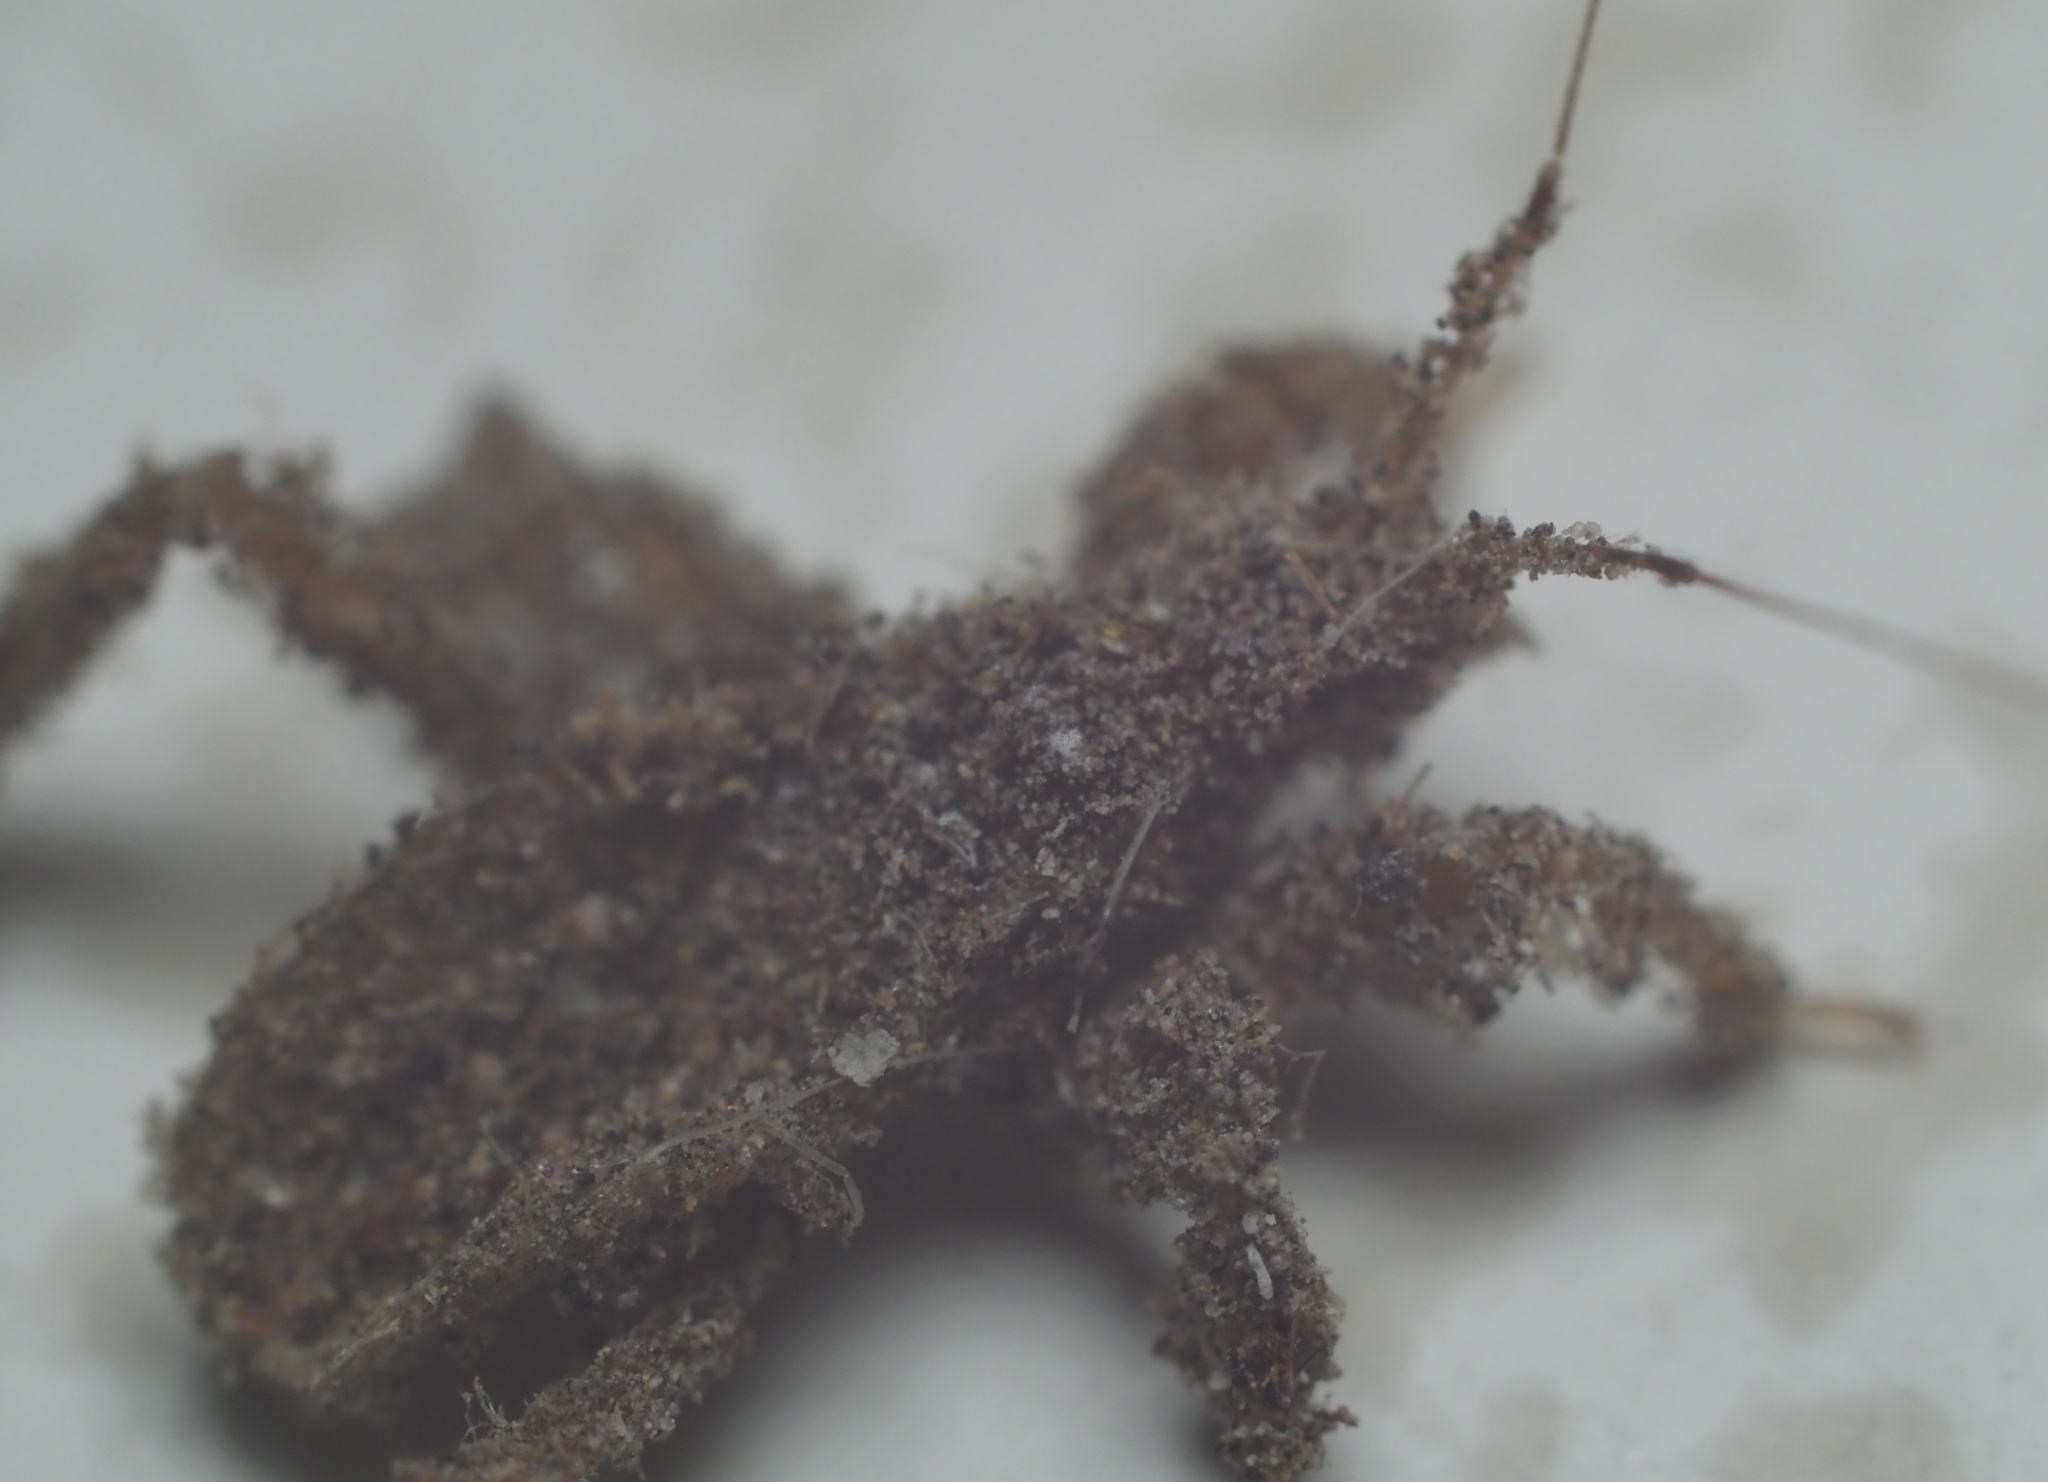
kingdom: Animalia
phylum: Arthropoda
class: Insecta
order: Hemiptera
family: Reduviidae
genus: Reduvius
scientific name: Reduvius personatus
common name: Masked hunter
